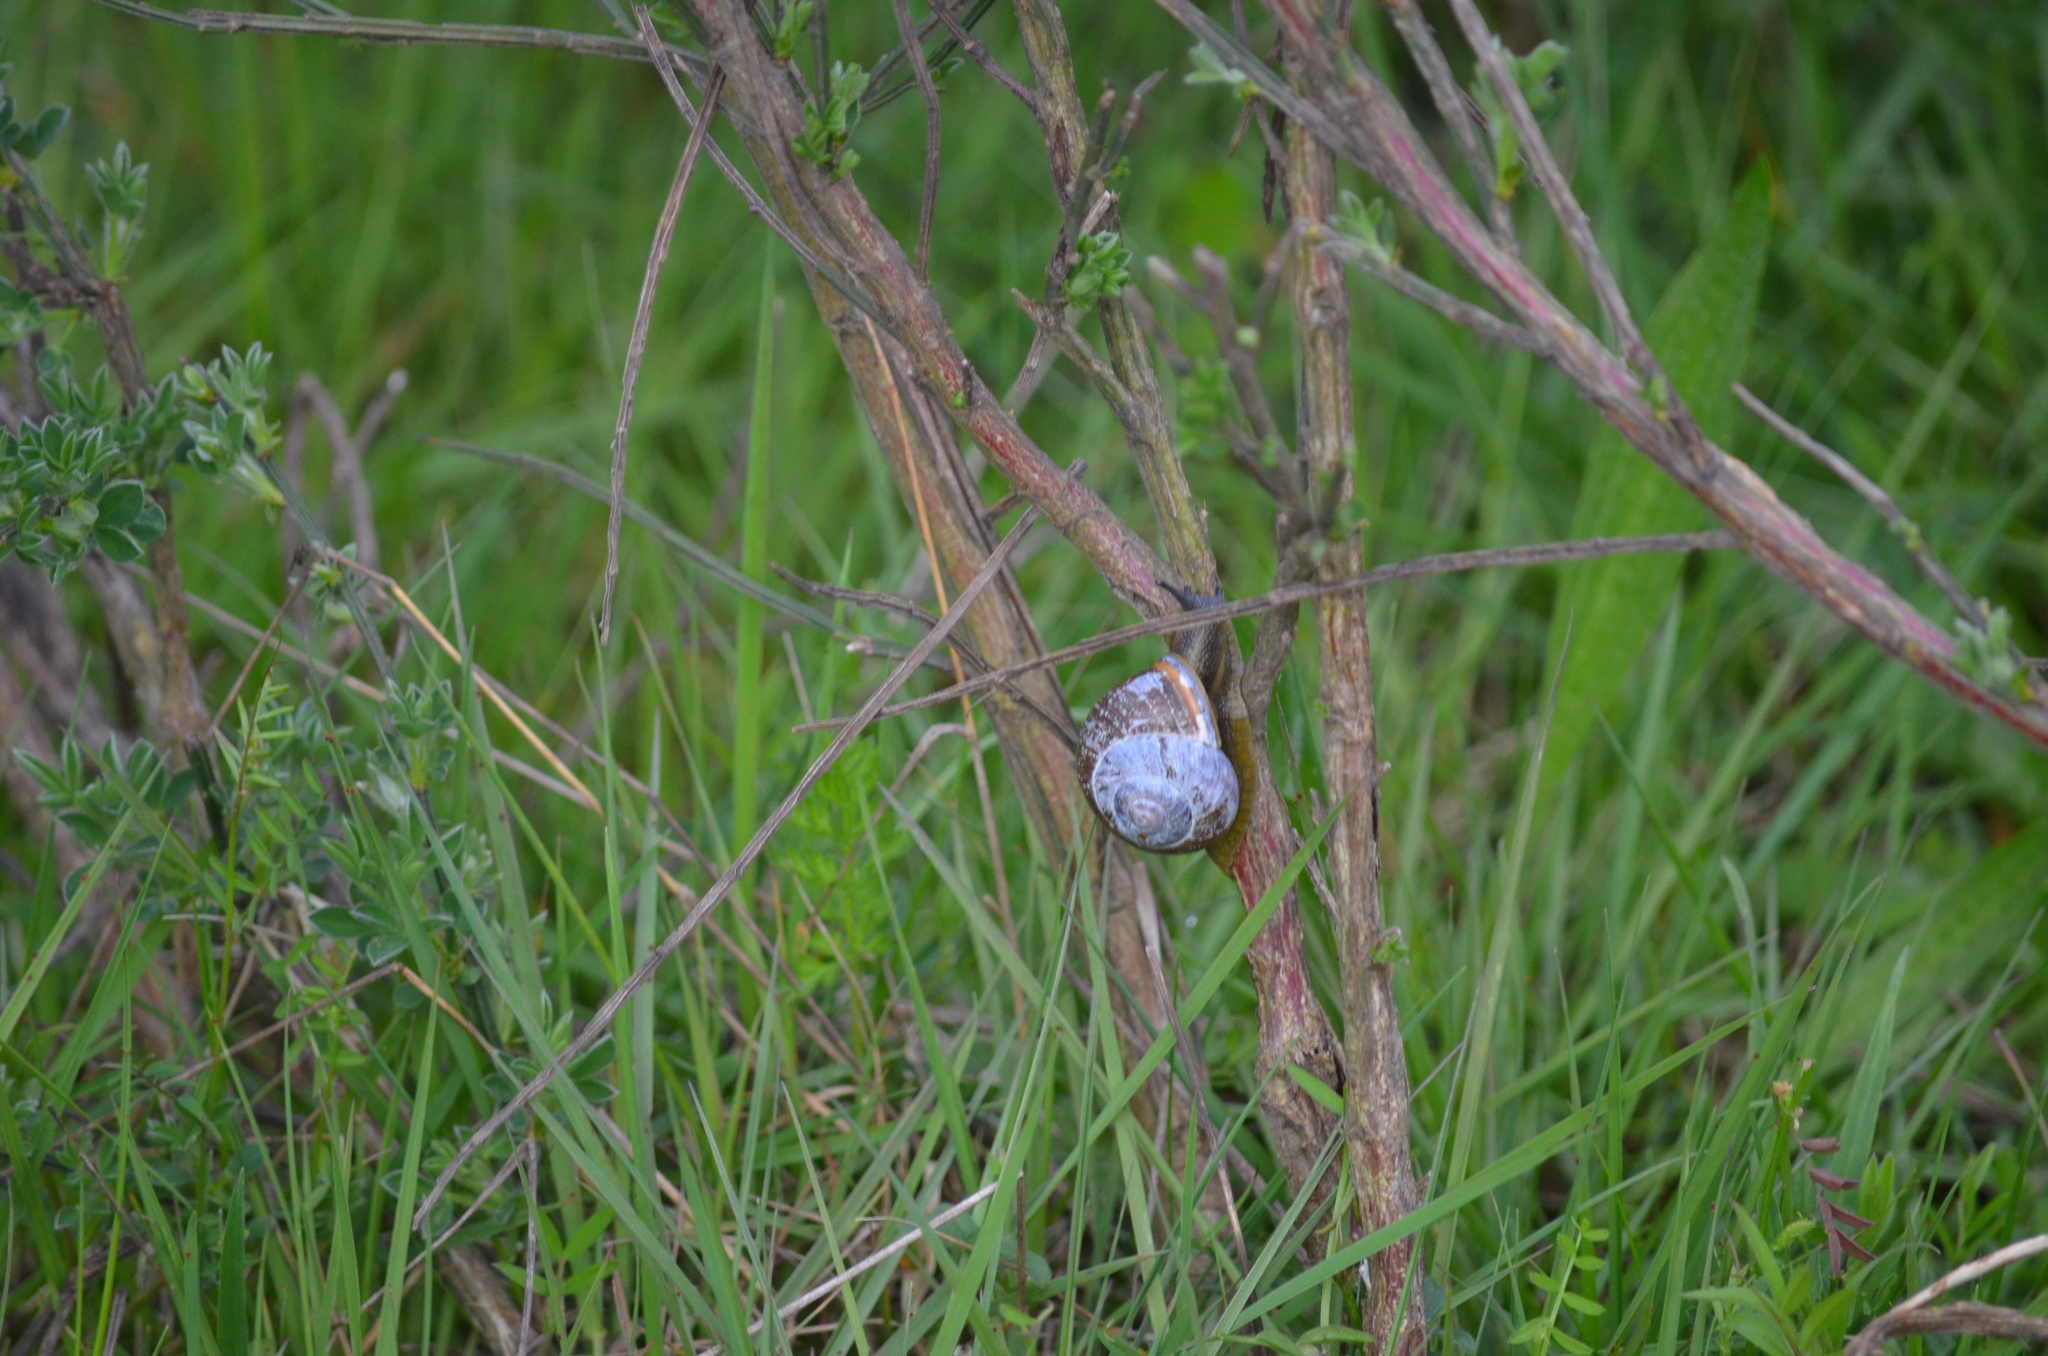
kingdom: Animalia
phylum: Mollusca
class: Gastropoda
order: Stylommatophora
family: Helicidae
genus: Cornu
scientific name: Cornu aspersum
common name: Brown garden snail
